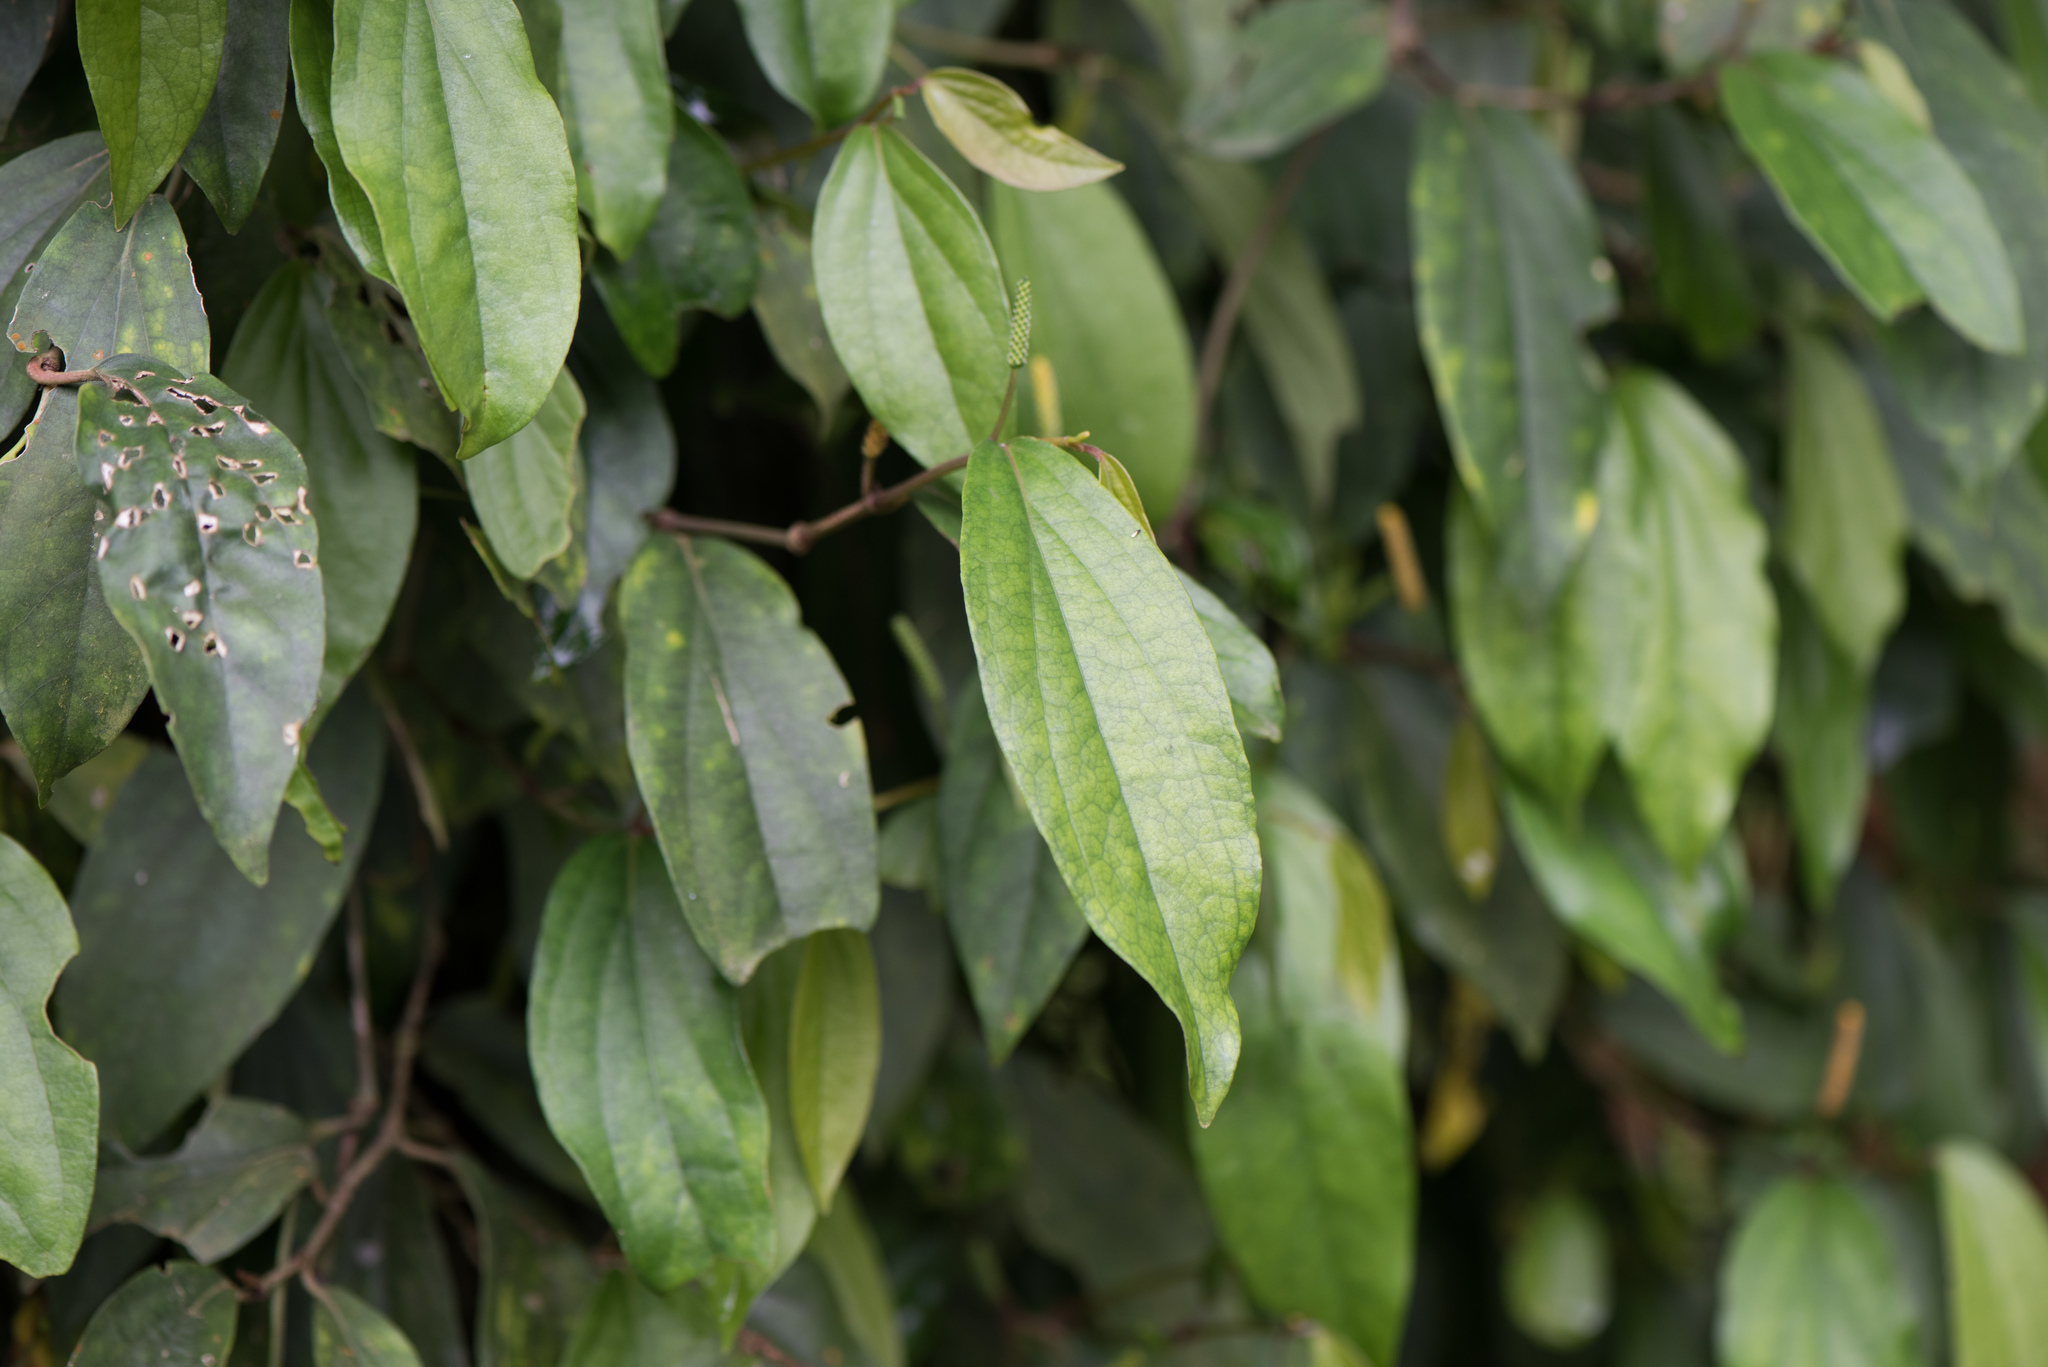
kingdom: Plantae
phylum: Tracheophyta
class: Magnoliopsida
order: Piperales
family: Piperaceae
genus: Piper
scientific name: Piper kadsura
